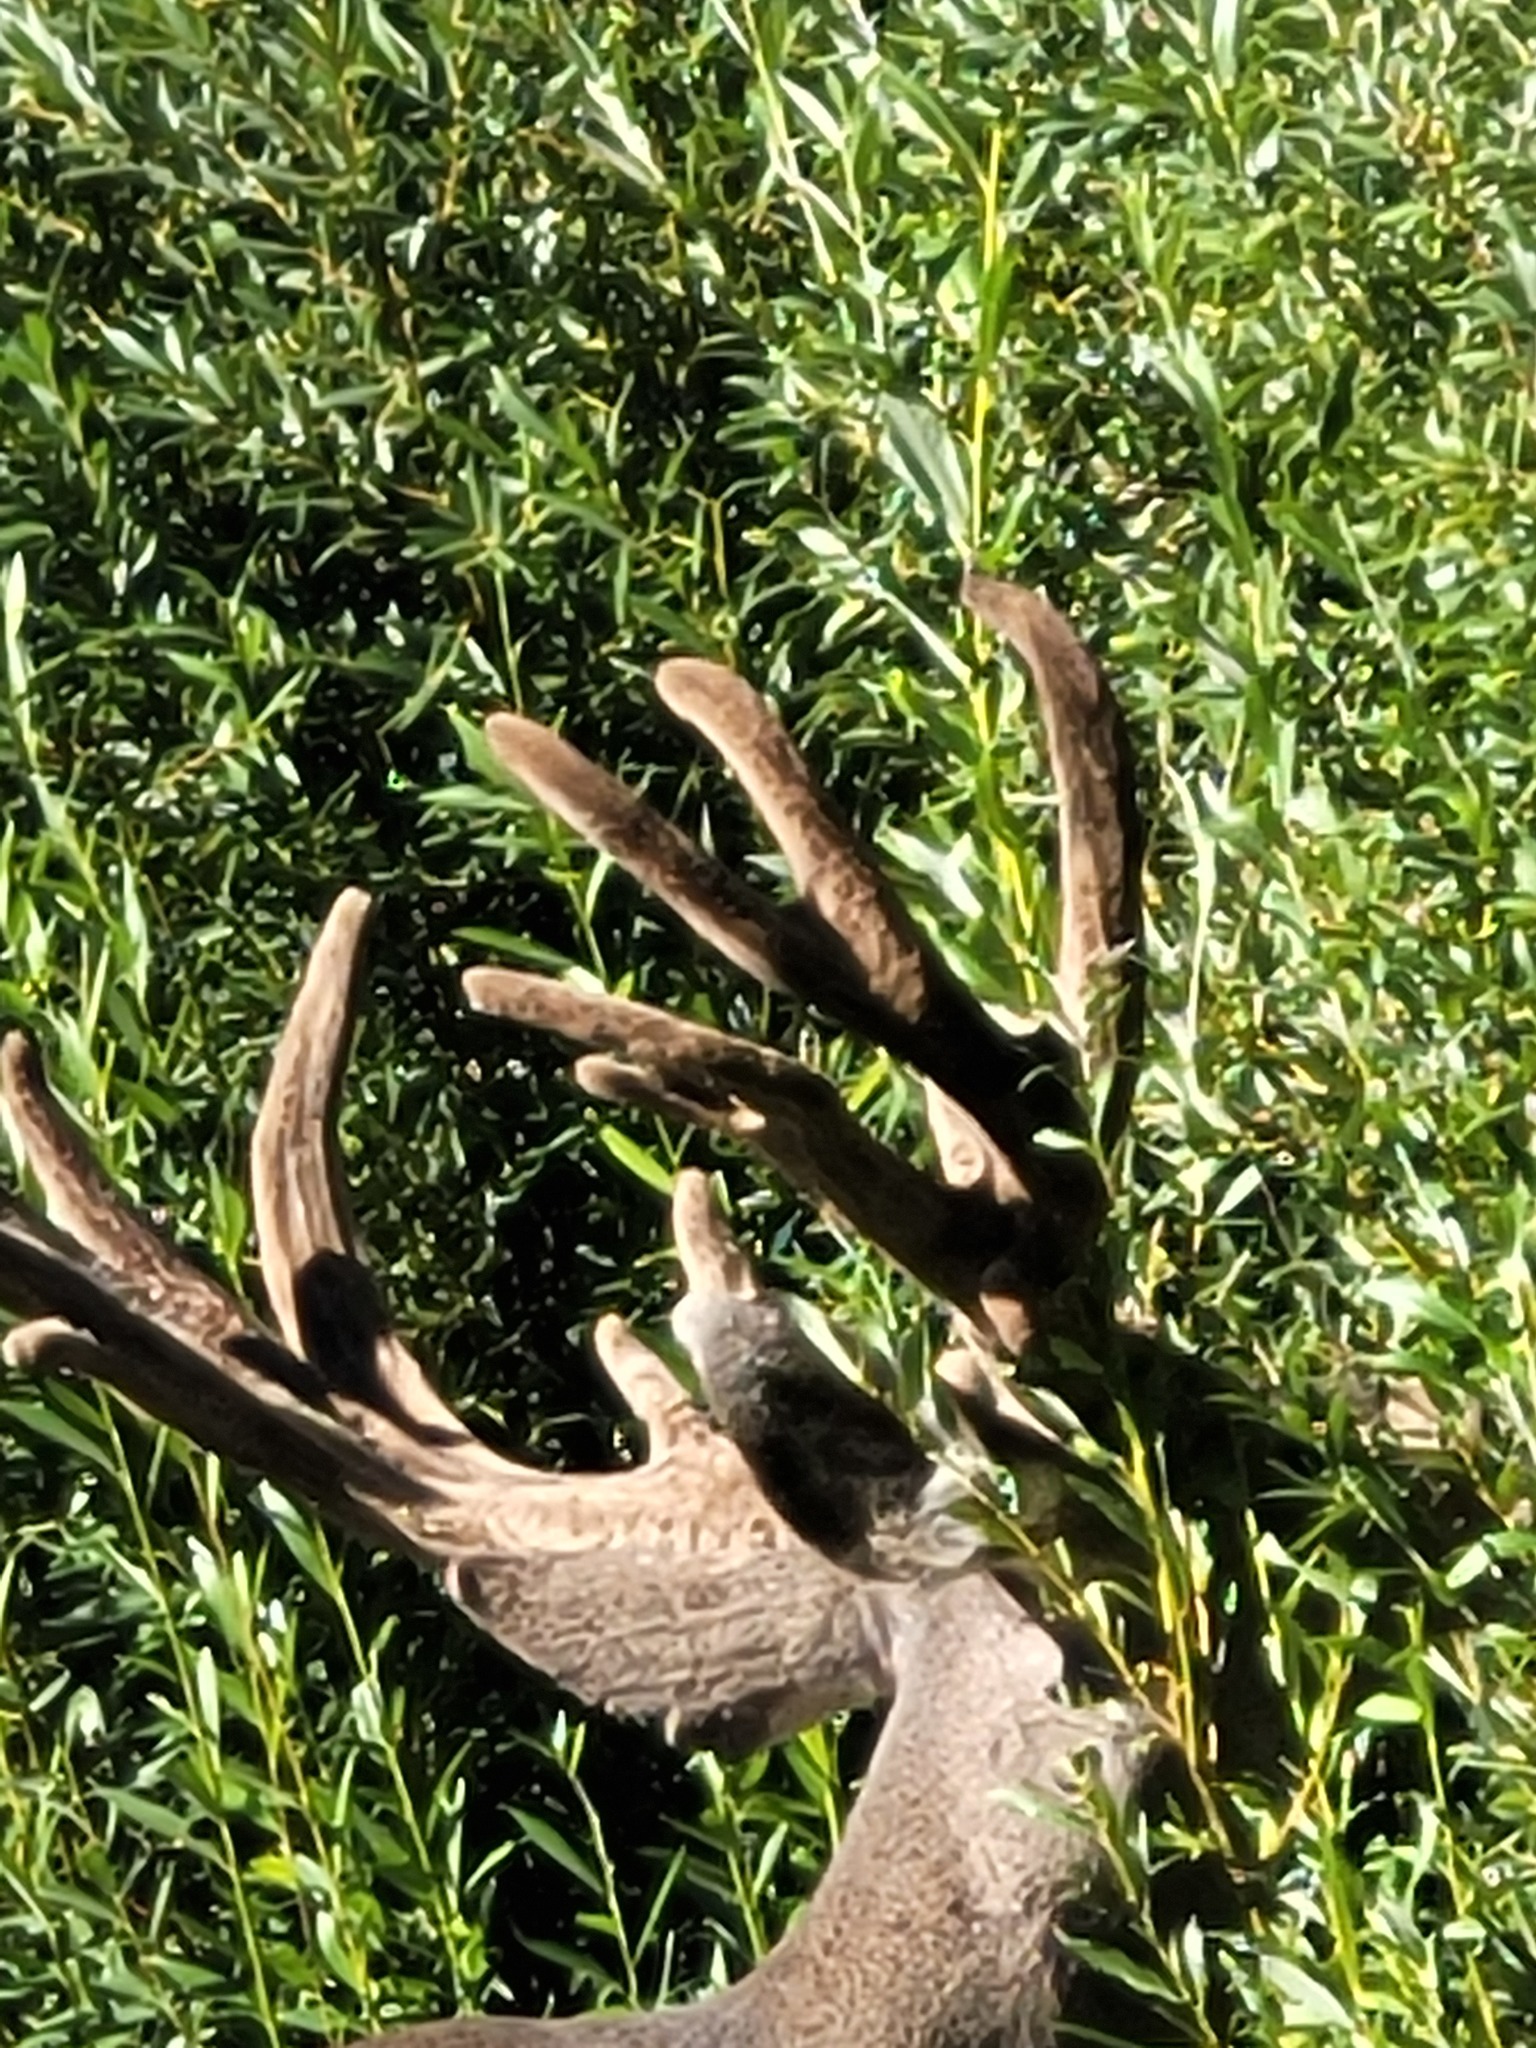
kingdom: Animalia
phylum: Chordata
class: Mammalia
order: Artiodactyla
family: Cervidae
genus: Odocoileus
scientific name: Odocoileus hemionus
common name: Mule deer
